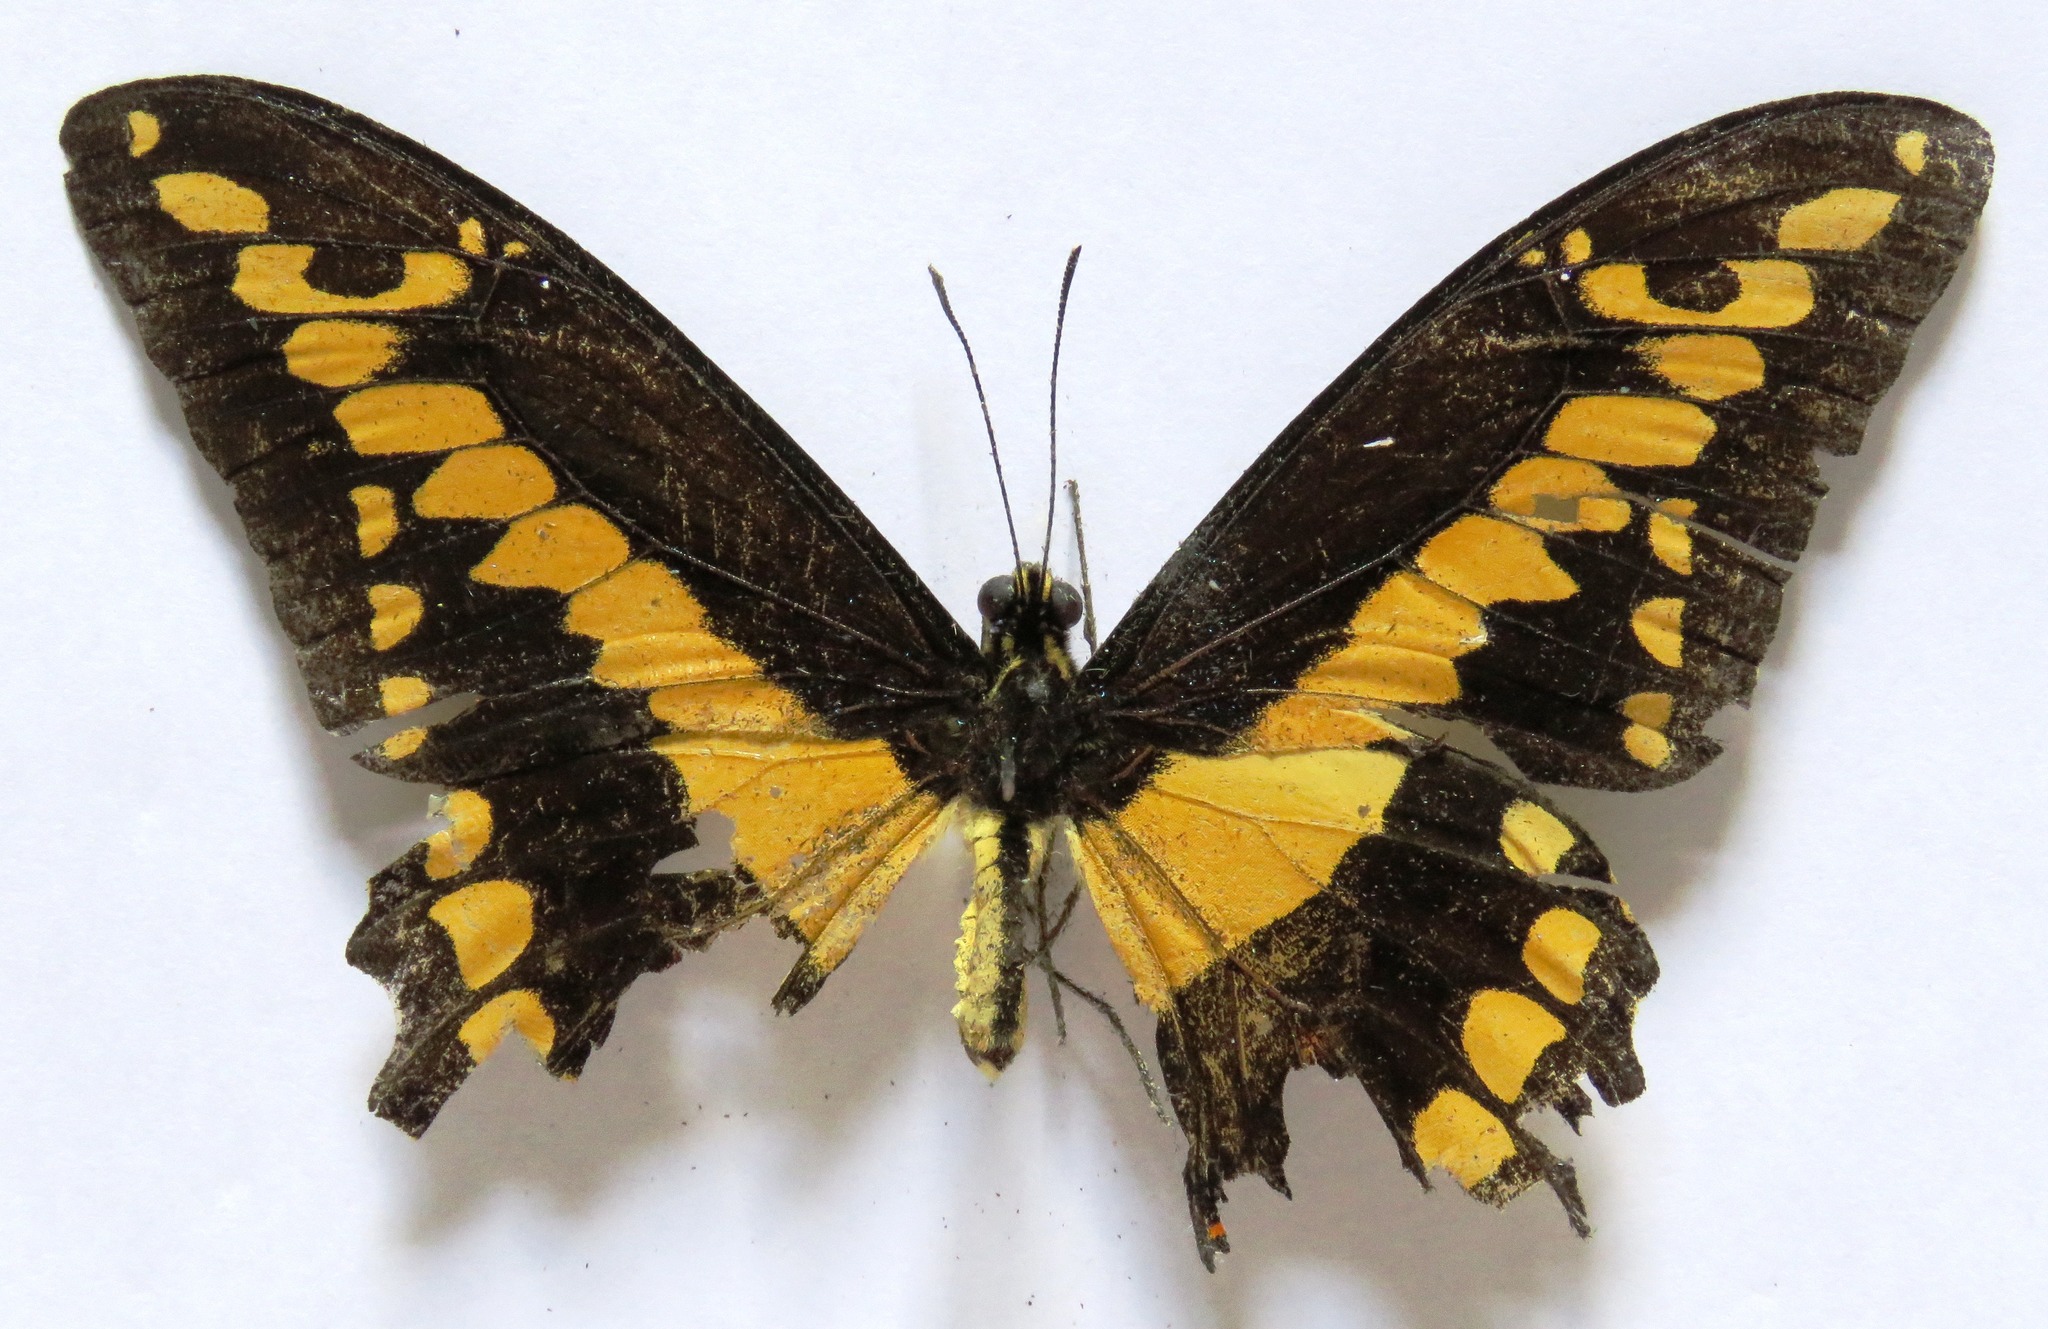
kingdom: Animalia
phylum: Arthropoda
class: Insecta
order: Lepidoptera
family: Papilionidae
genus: Papilio
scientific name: Papilio rumiko
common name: Western giant swallowtail
